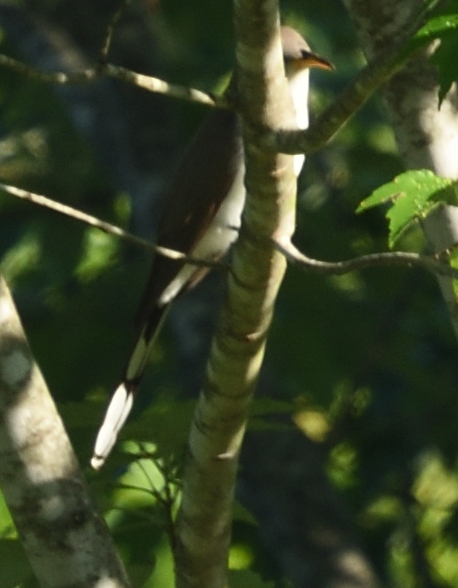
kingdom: Animalia
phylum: Chordata
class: Aves
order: Cuculiformes
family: Cuculidae
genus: Coccyzus
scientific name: Coccyzus americanus
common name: Yellow-billed cuckoo
